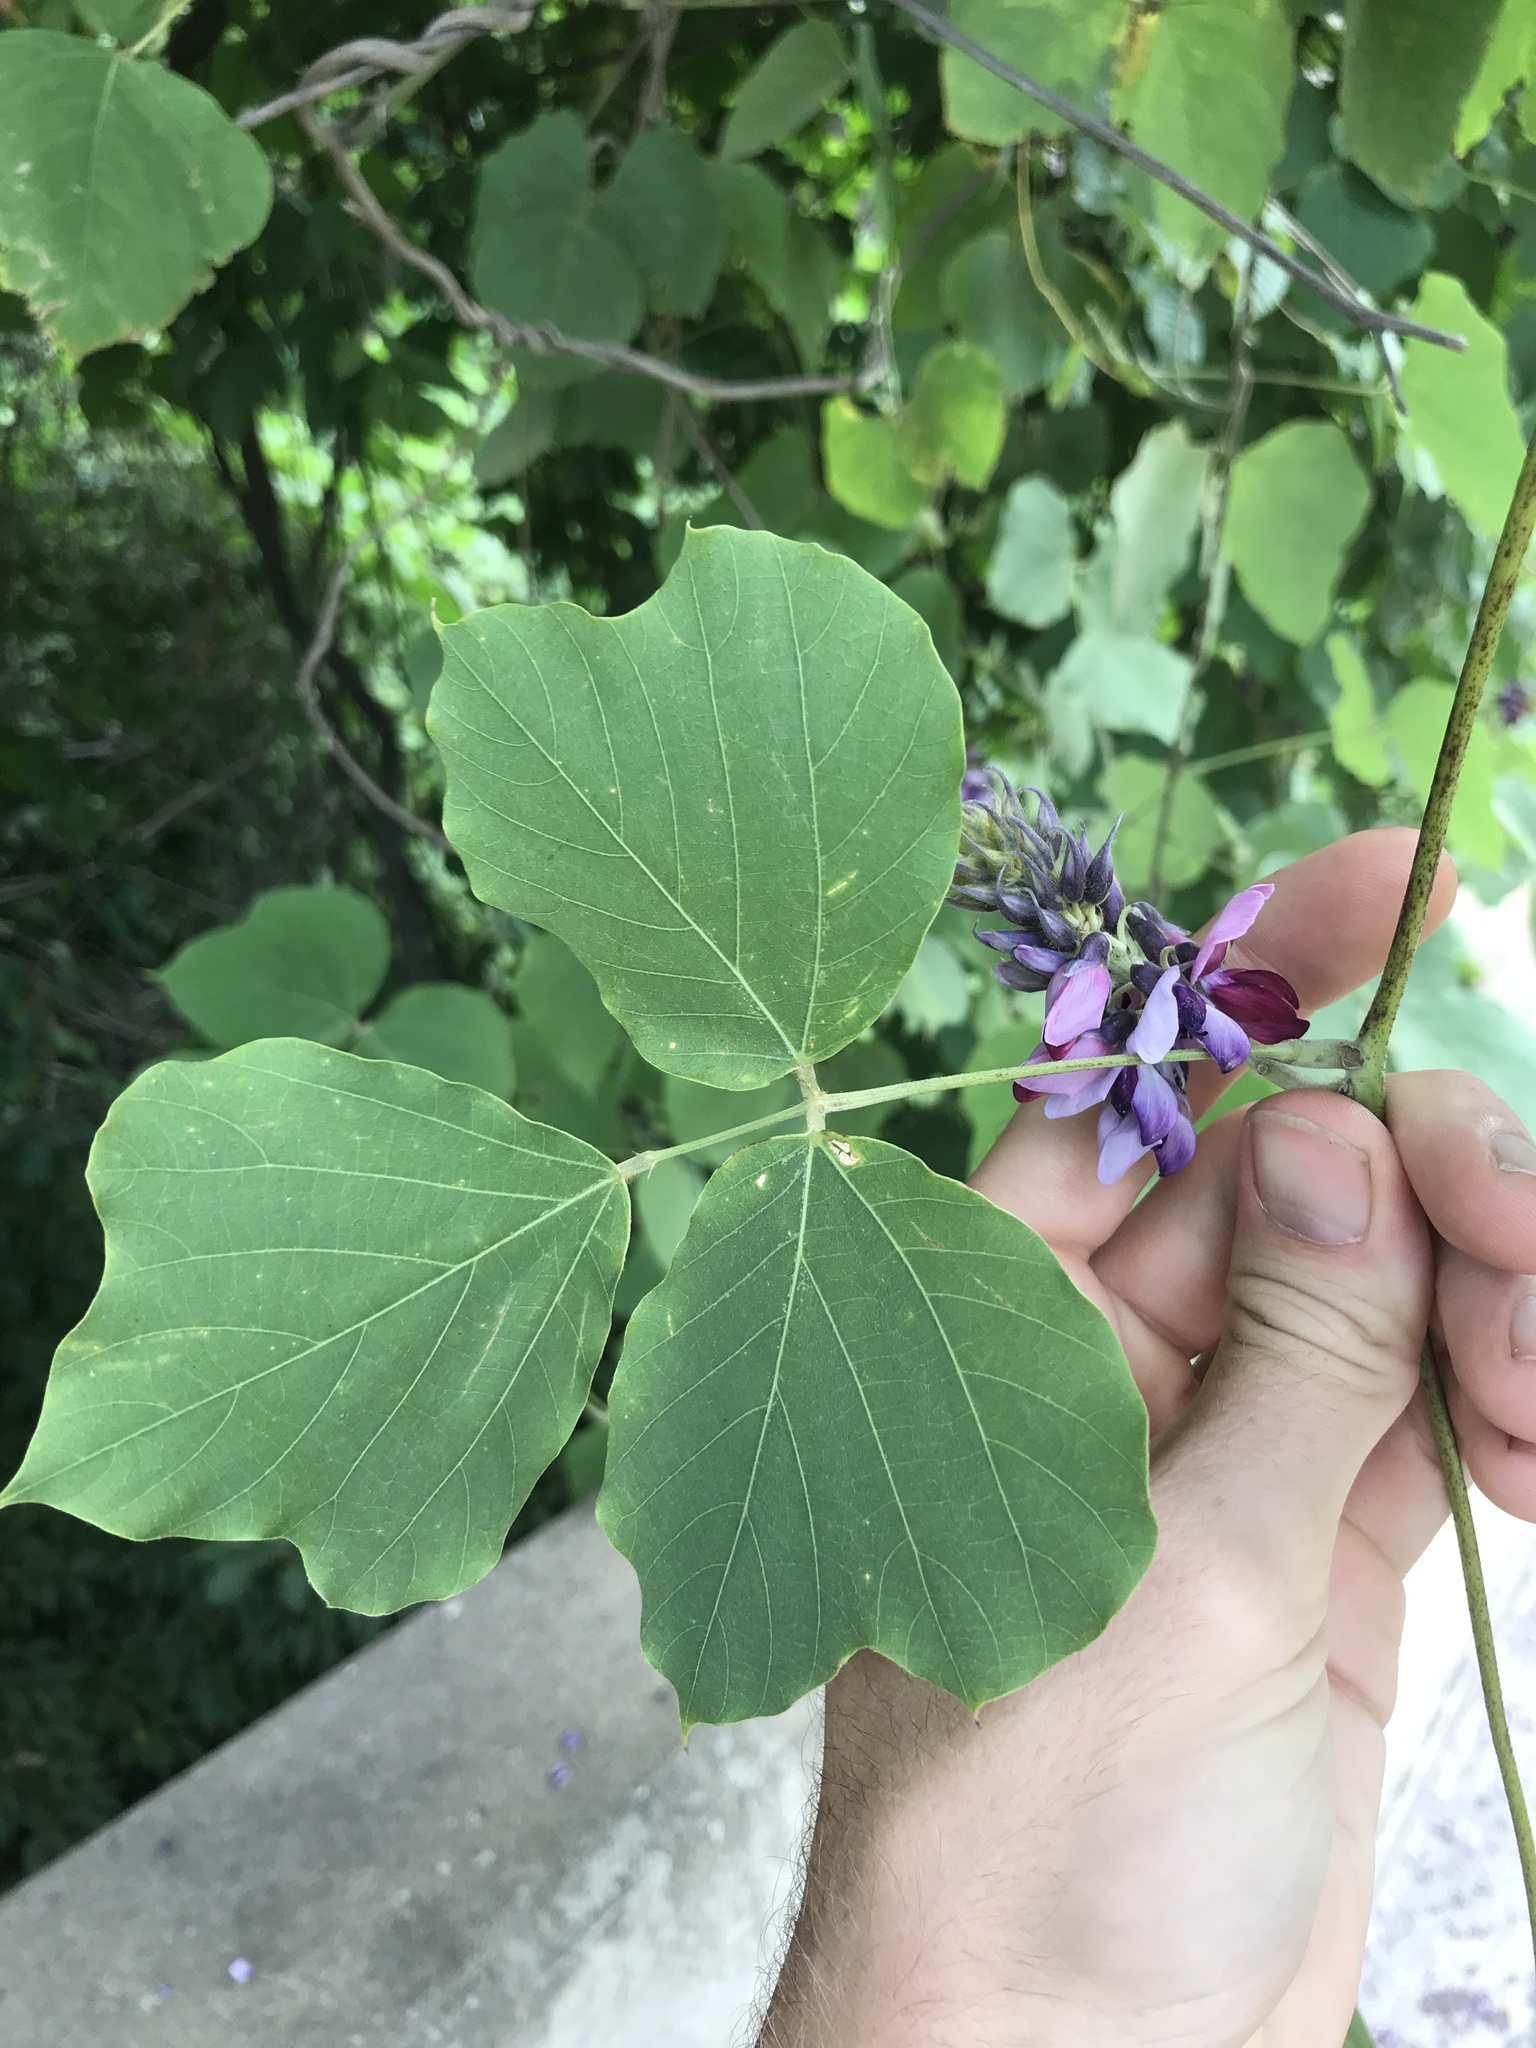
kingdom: Plantae
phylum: Tracheophyta
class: Magnoliopsida
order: Fabales
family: Fabaceae
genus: Pueraria
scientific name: Pueraria montana
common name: Kudzu
